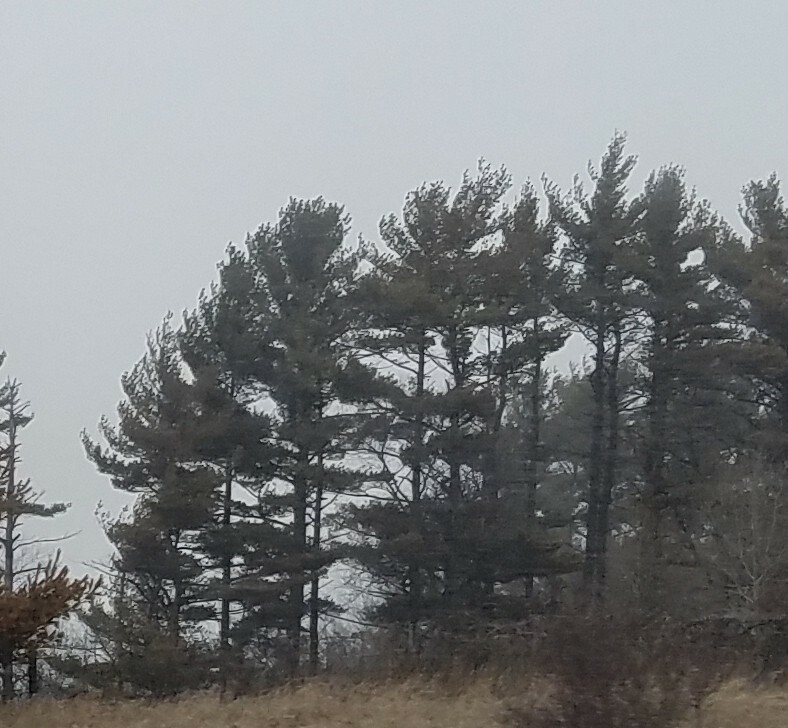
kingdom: Plantae
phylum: Tracheophyta
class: Pinopsida
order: Pinales
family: Pinaceae
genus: Pinus
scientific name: Pinus strobus
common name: Weymouth pine
